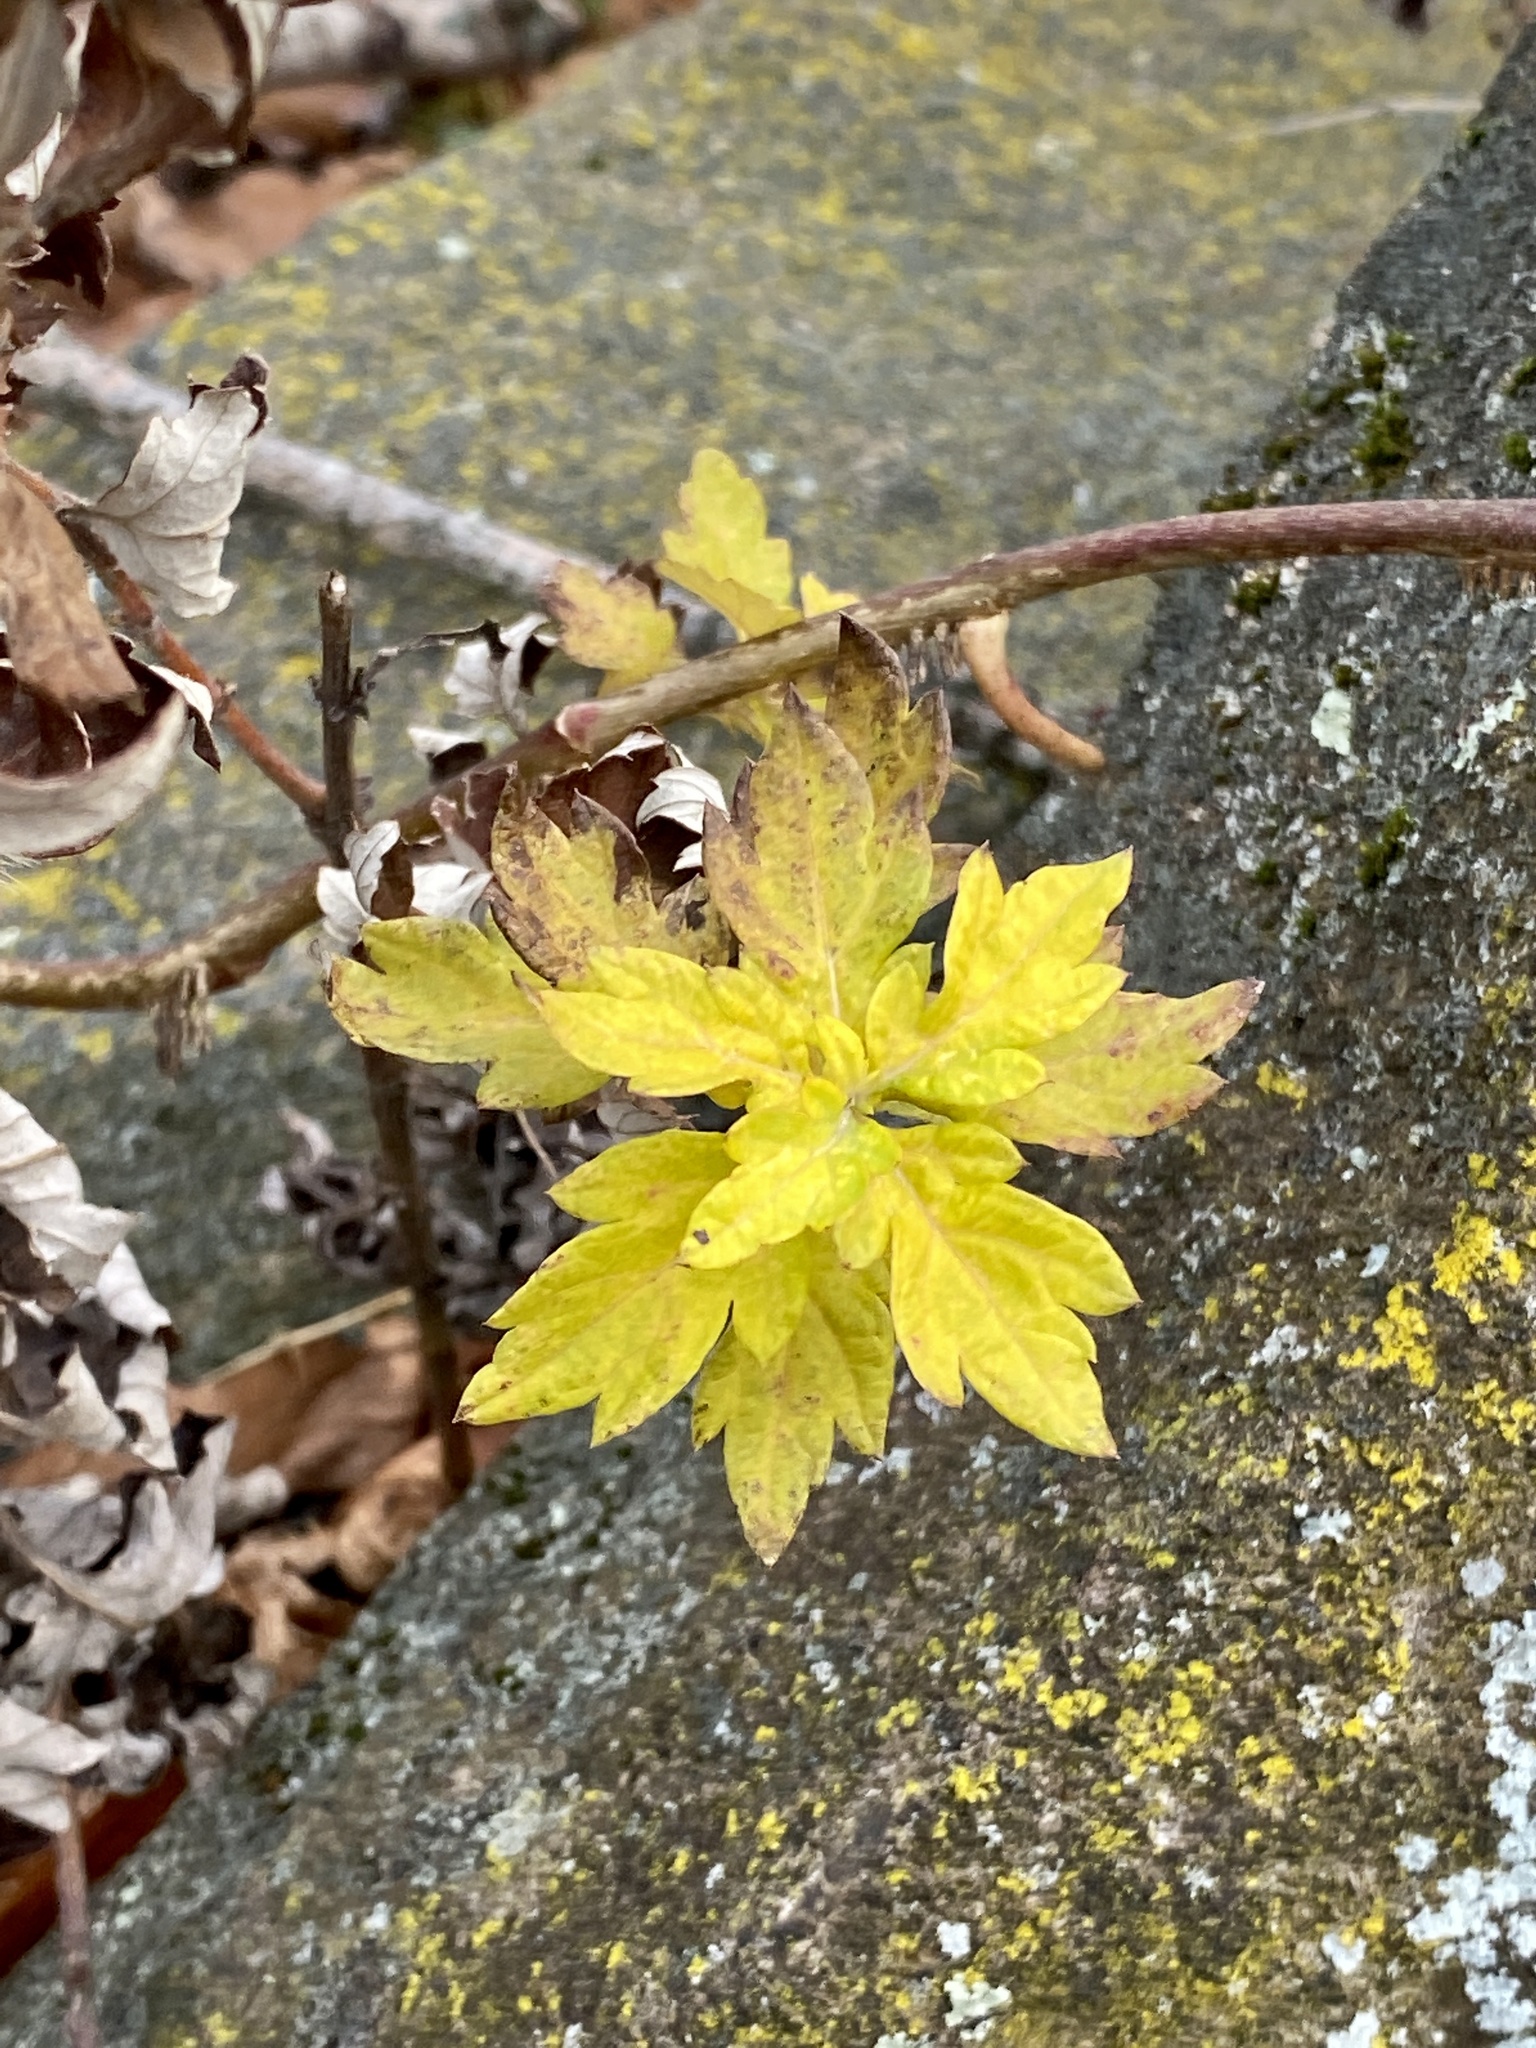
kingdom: Plantae
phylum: Tracheophyta
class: Magnoliopsida
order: Asterales
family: Asteraceae
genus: Artemisia
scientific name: Artemisia vulgaris
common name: Mugwort
